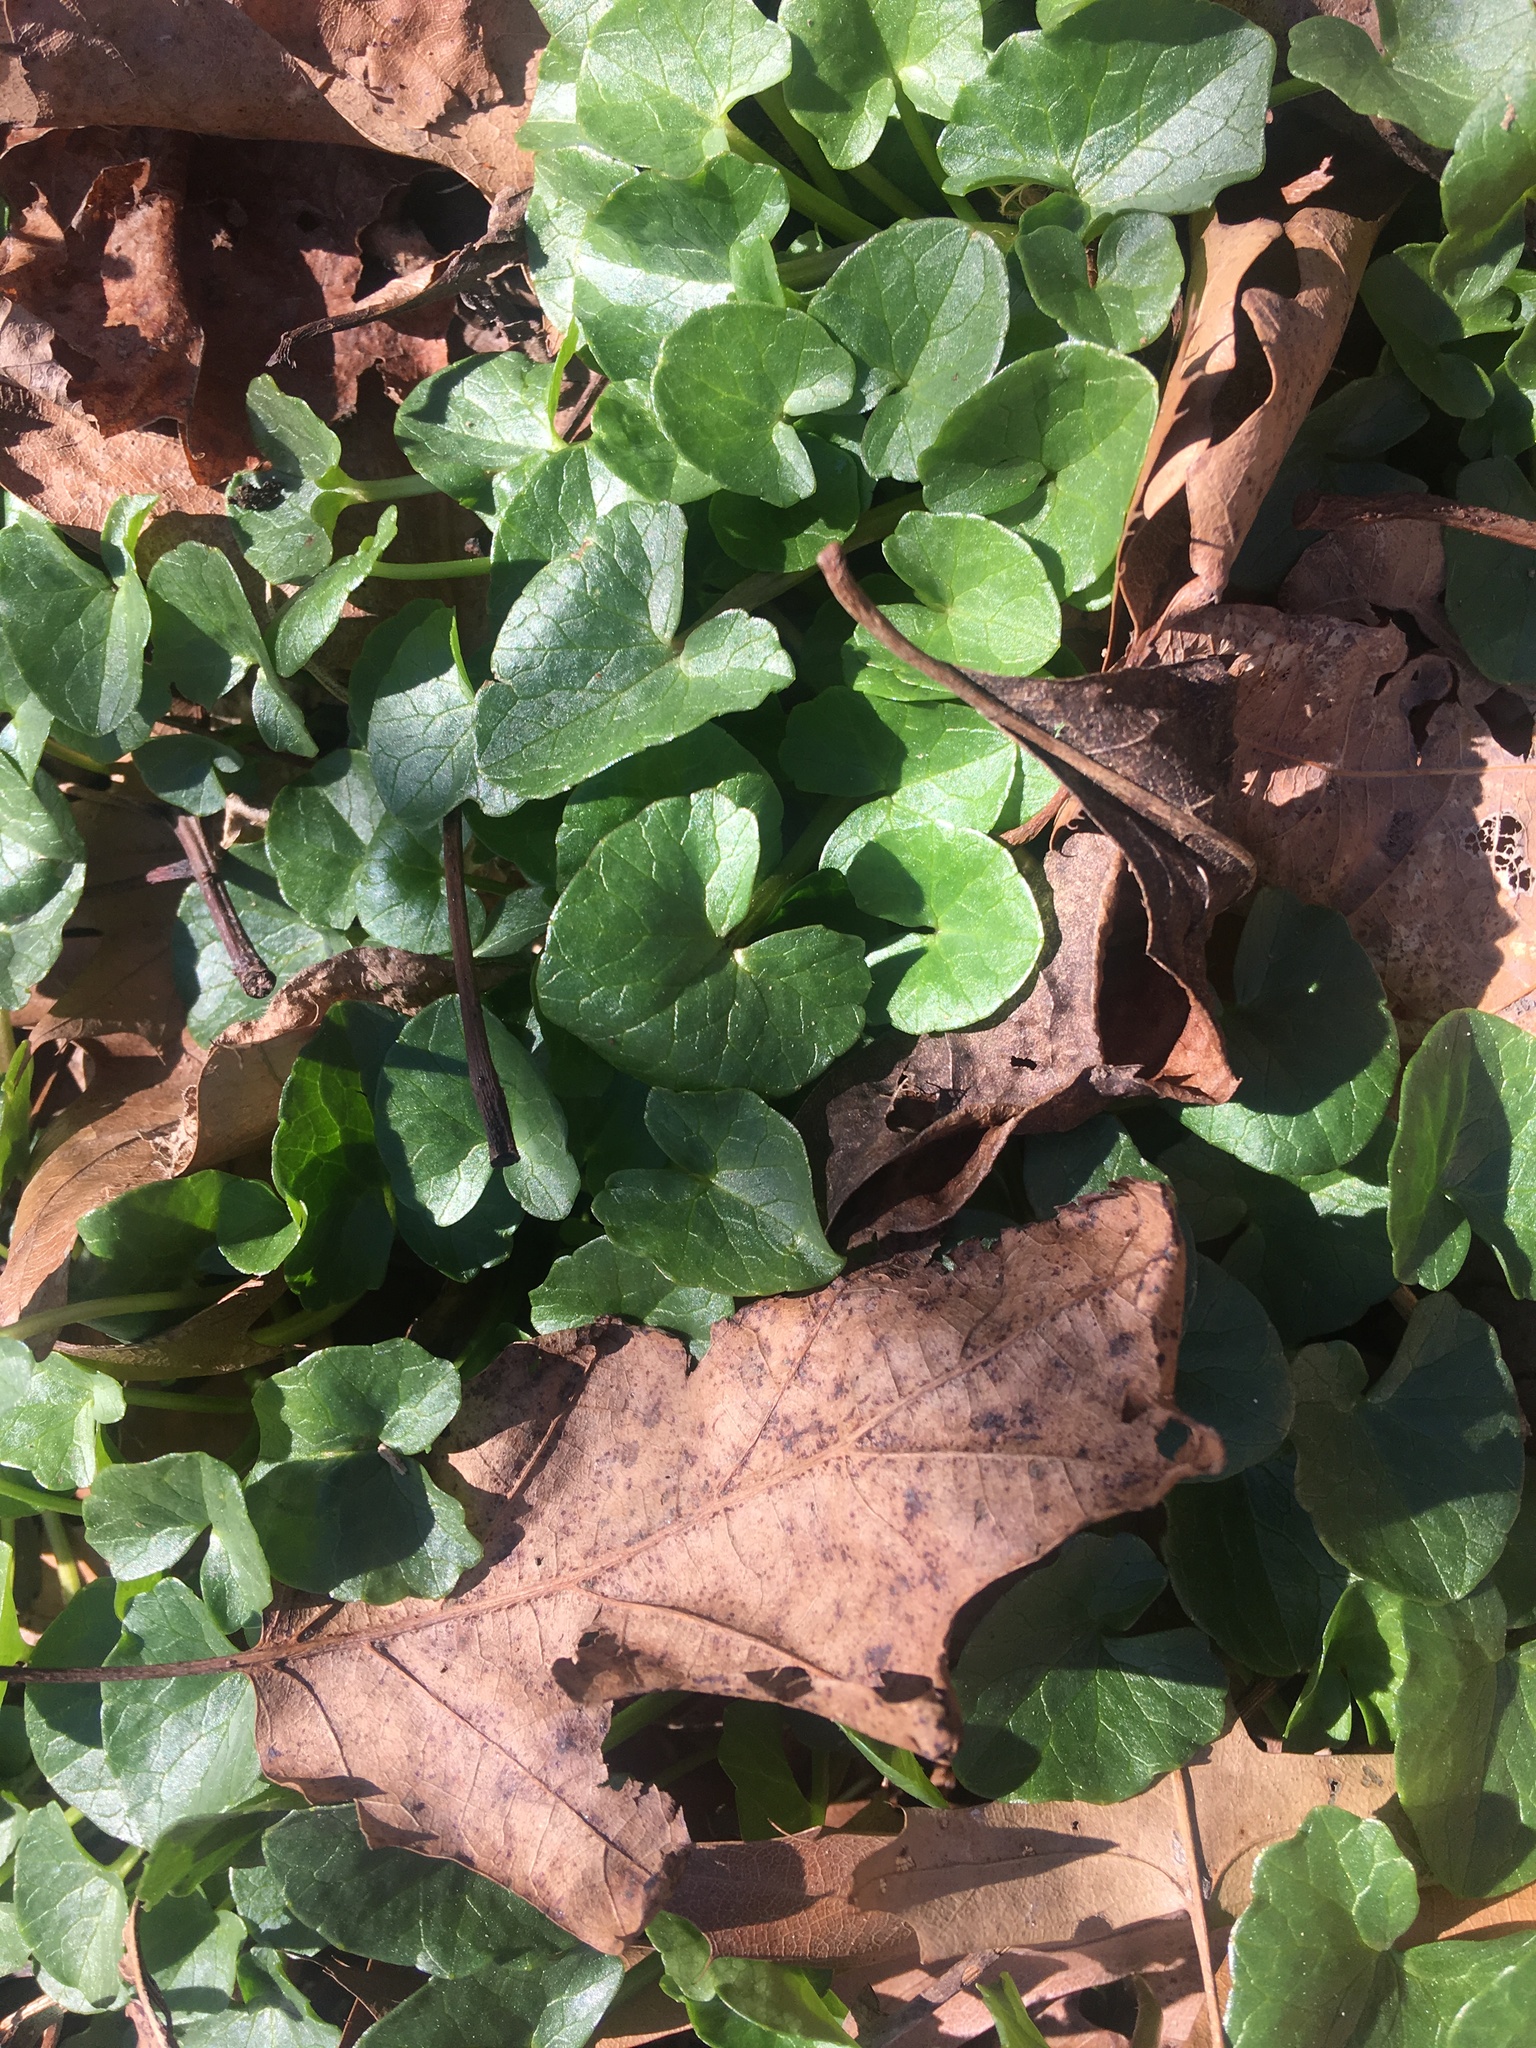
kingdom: Plantae
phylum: Tracheophyta
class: Magnoliopsida
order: Ranunculales
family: Ranunculaceae
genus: Ficaria
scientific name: Ficaria verna
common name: Lesser celandine
